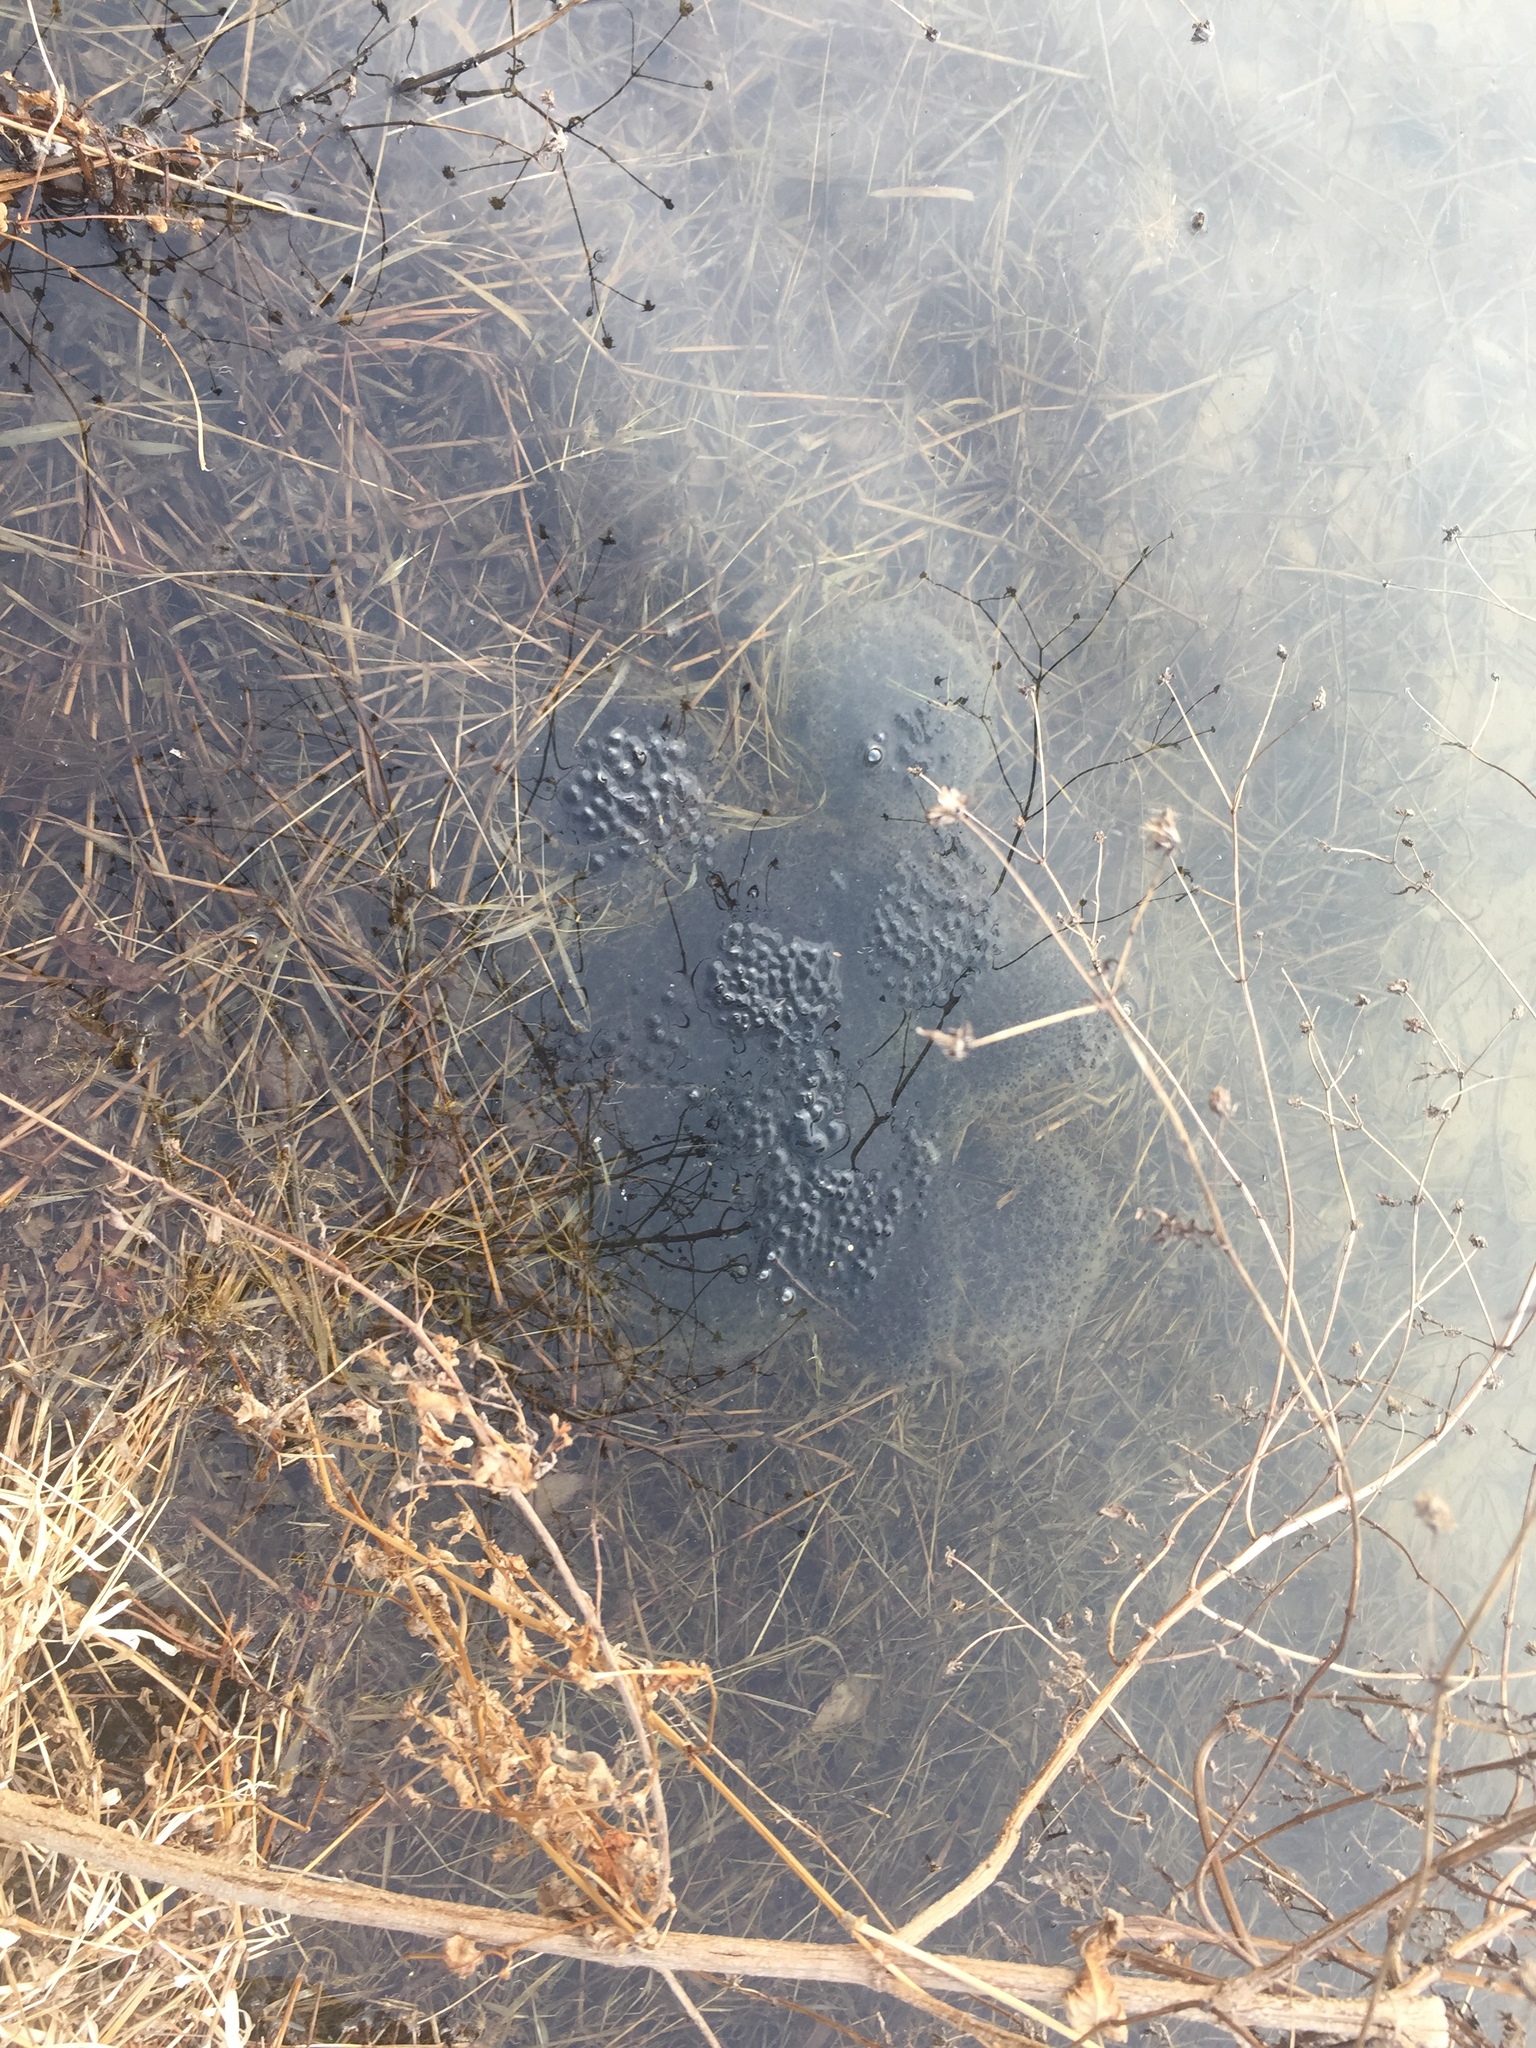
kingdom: Animalia
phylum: Chordata
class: Amphibia
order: Anura
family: Ranidae
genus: Rana
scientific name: Rana uenoi
